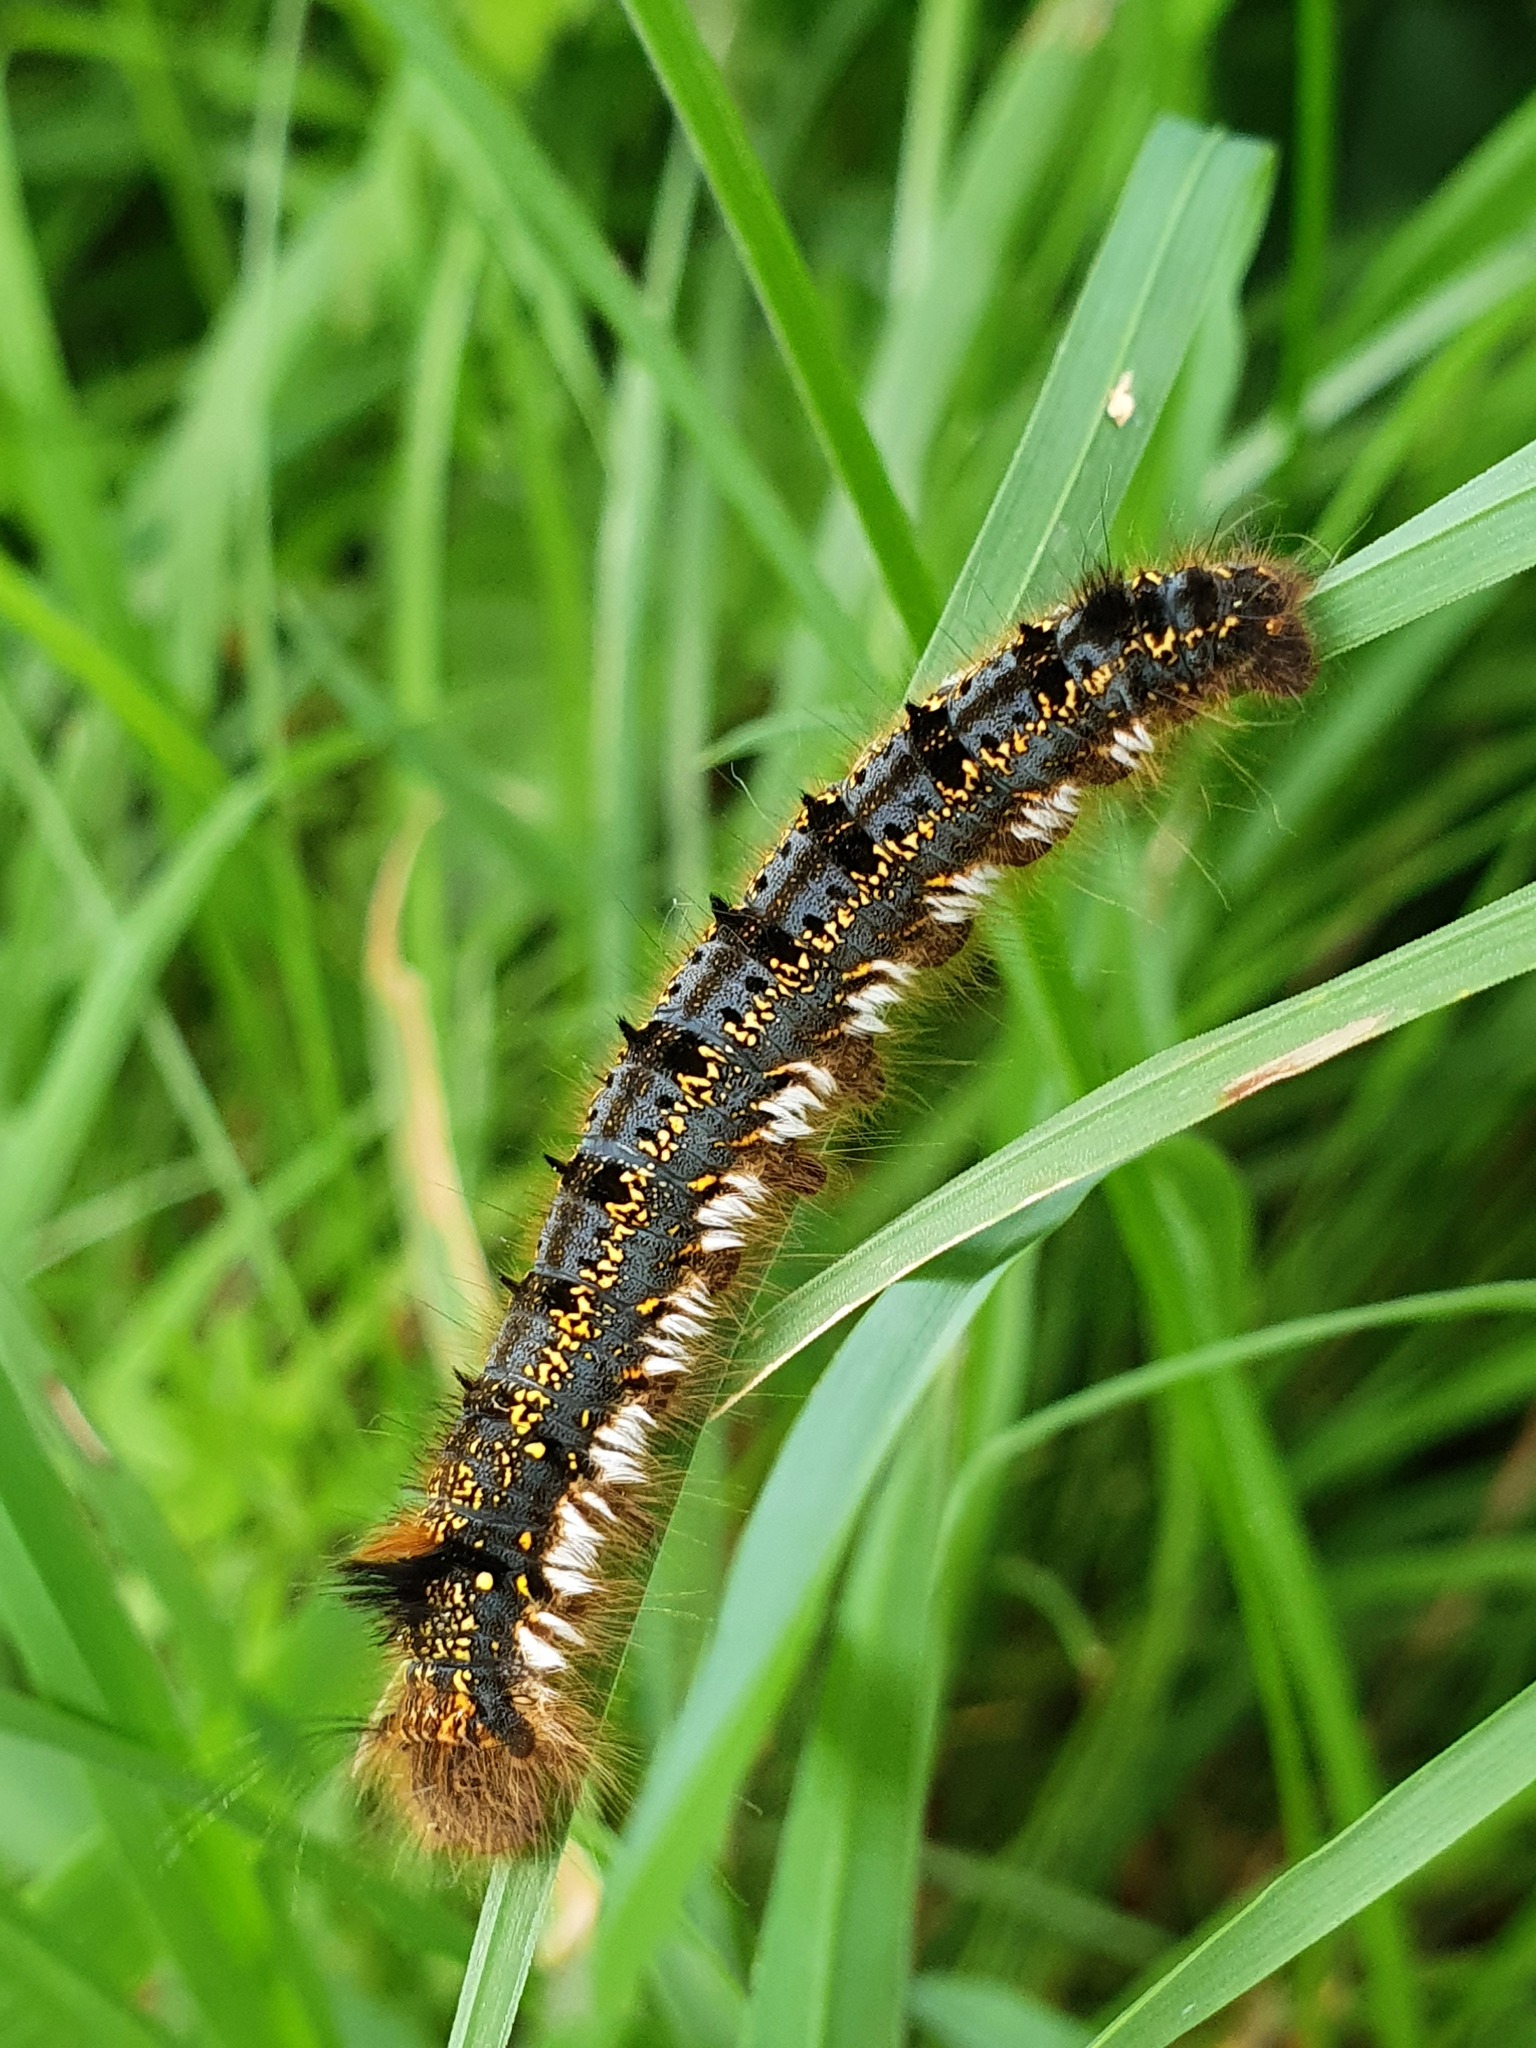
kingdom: Animalia
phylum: Arthropoda
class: Insecta
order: Lepidoptera
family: Lasiocampidae
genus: Euthrix
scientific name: Euthrix potatoria
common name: Drinker
